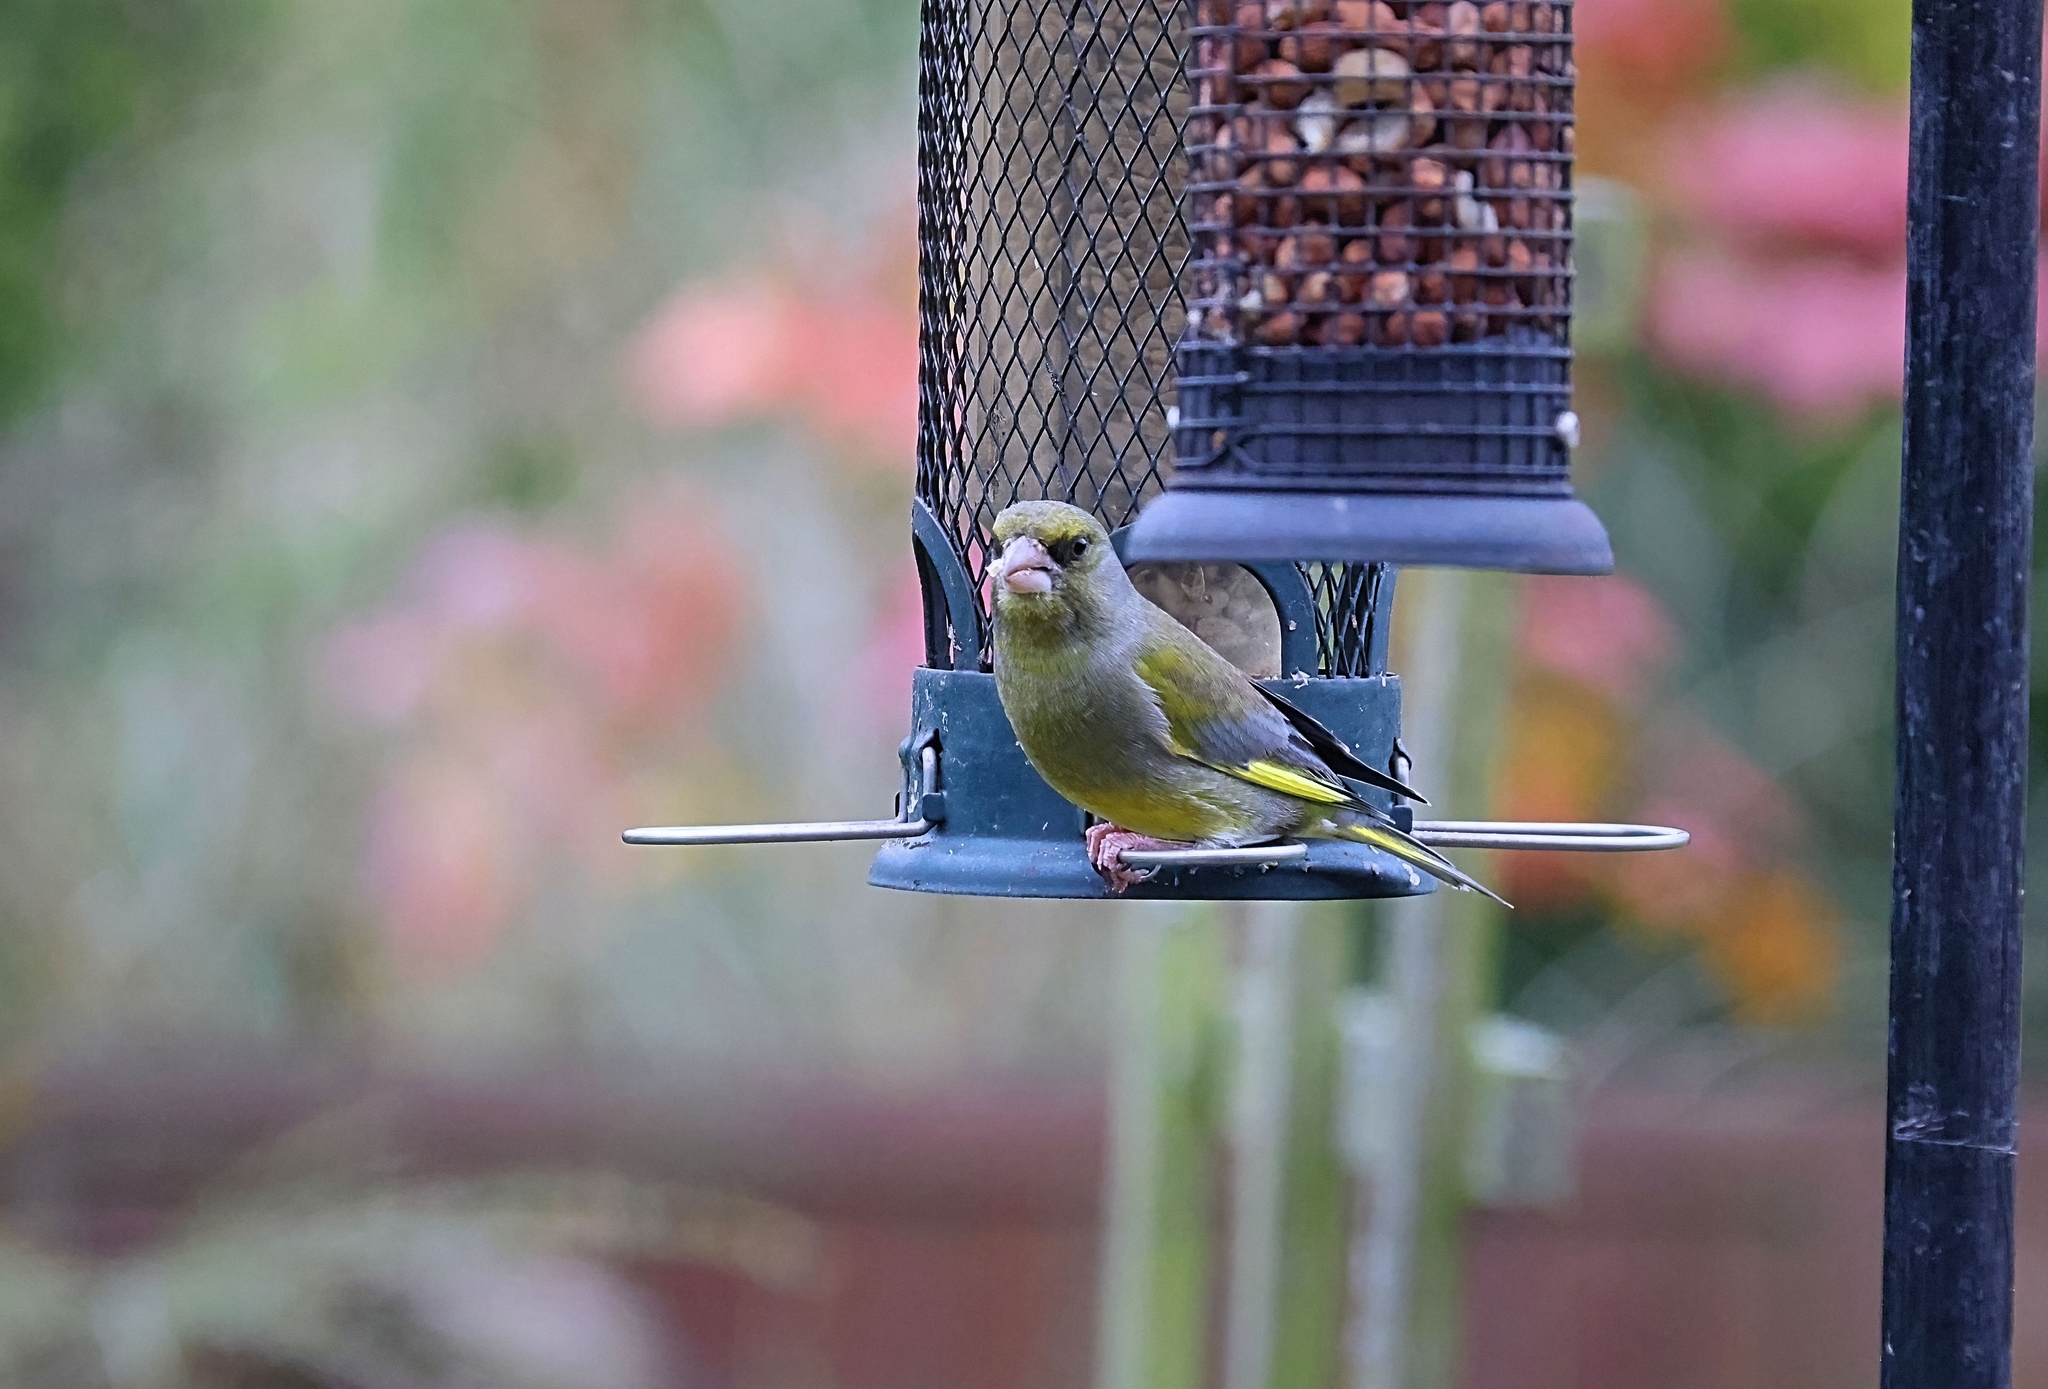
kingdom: Plantae
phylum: Tracheophyta
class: Liliopsida
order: Poales
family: Poaceae
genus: Chloris
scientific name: Chloris chloris
